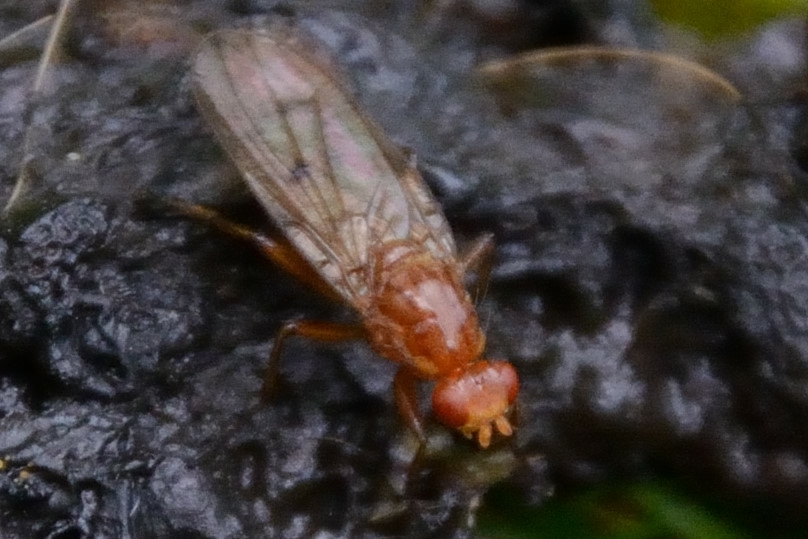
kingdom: Animalia
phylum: Arthropoda
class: Insecta
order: Diptera
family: Dryomyzidae
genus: Dryomyza
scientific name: Dryomyza anilis
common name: Marsh fly
